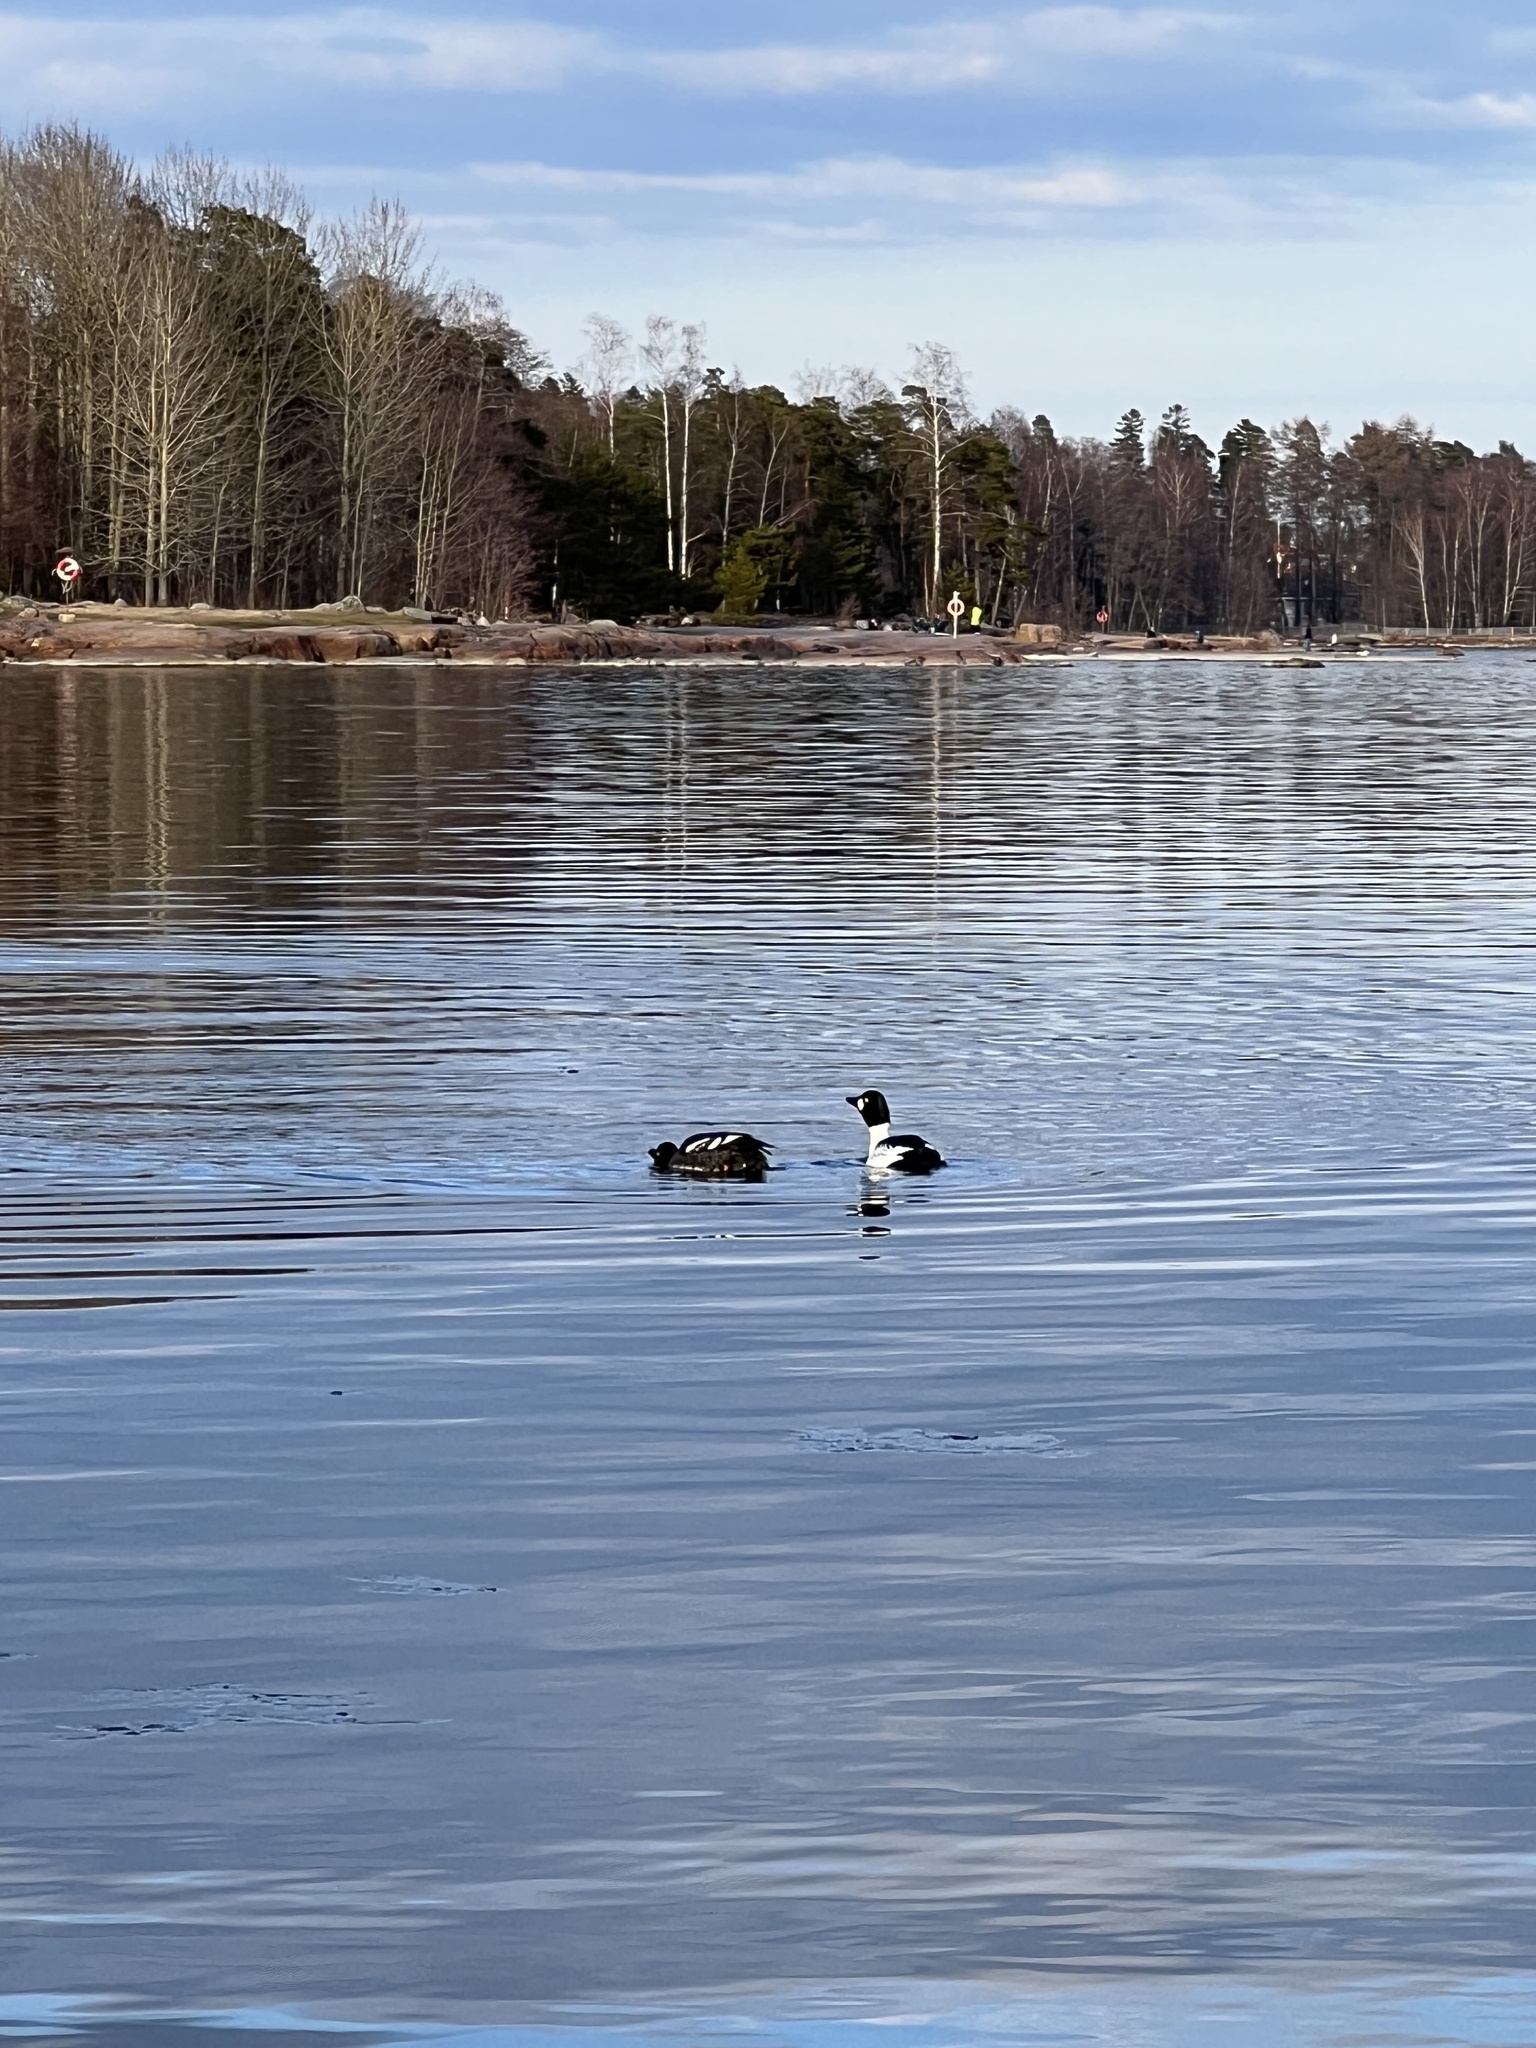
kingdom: Animalia
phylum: Chordata
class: Aves
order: Anseriformes
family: Anatidae
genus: Bucephala
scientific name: Bucephala clangula
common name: Common goldeneye
